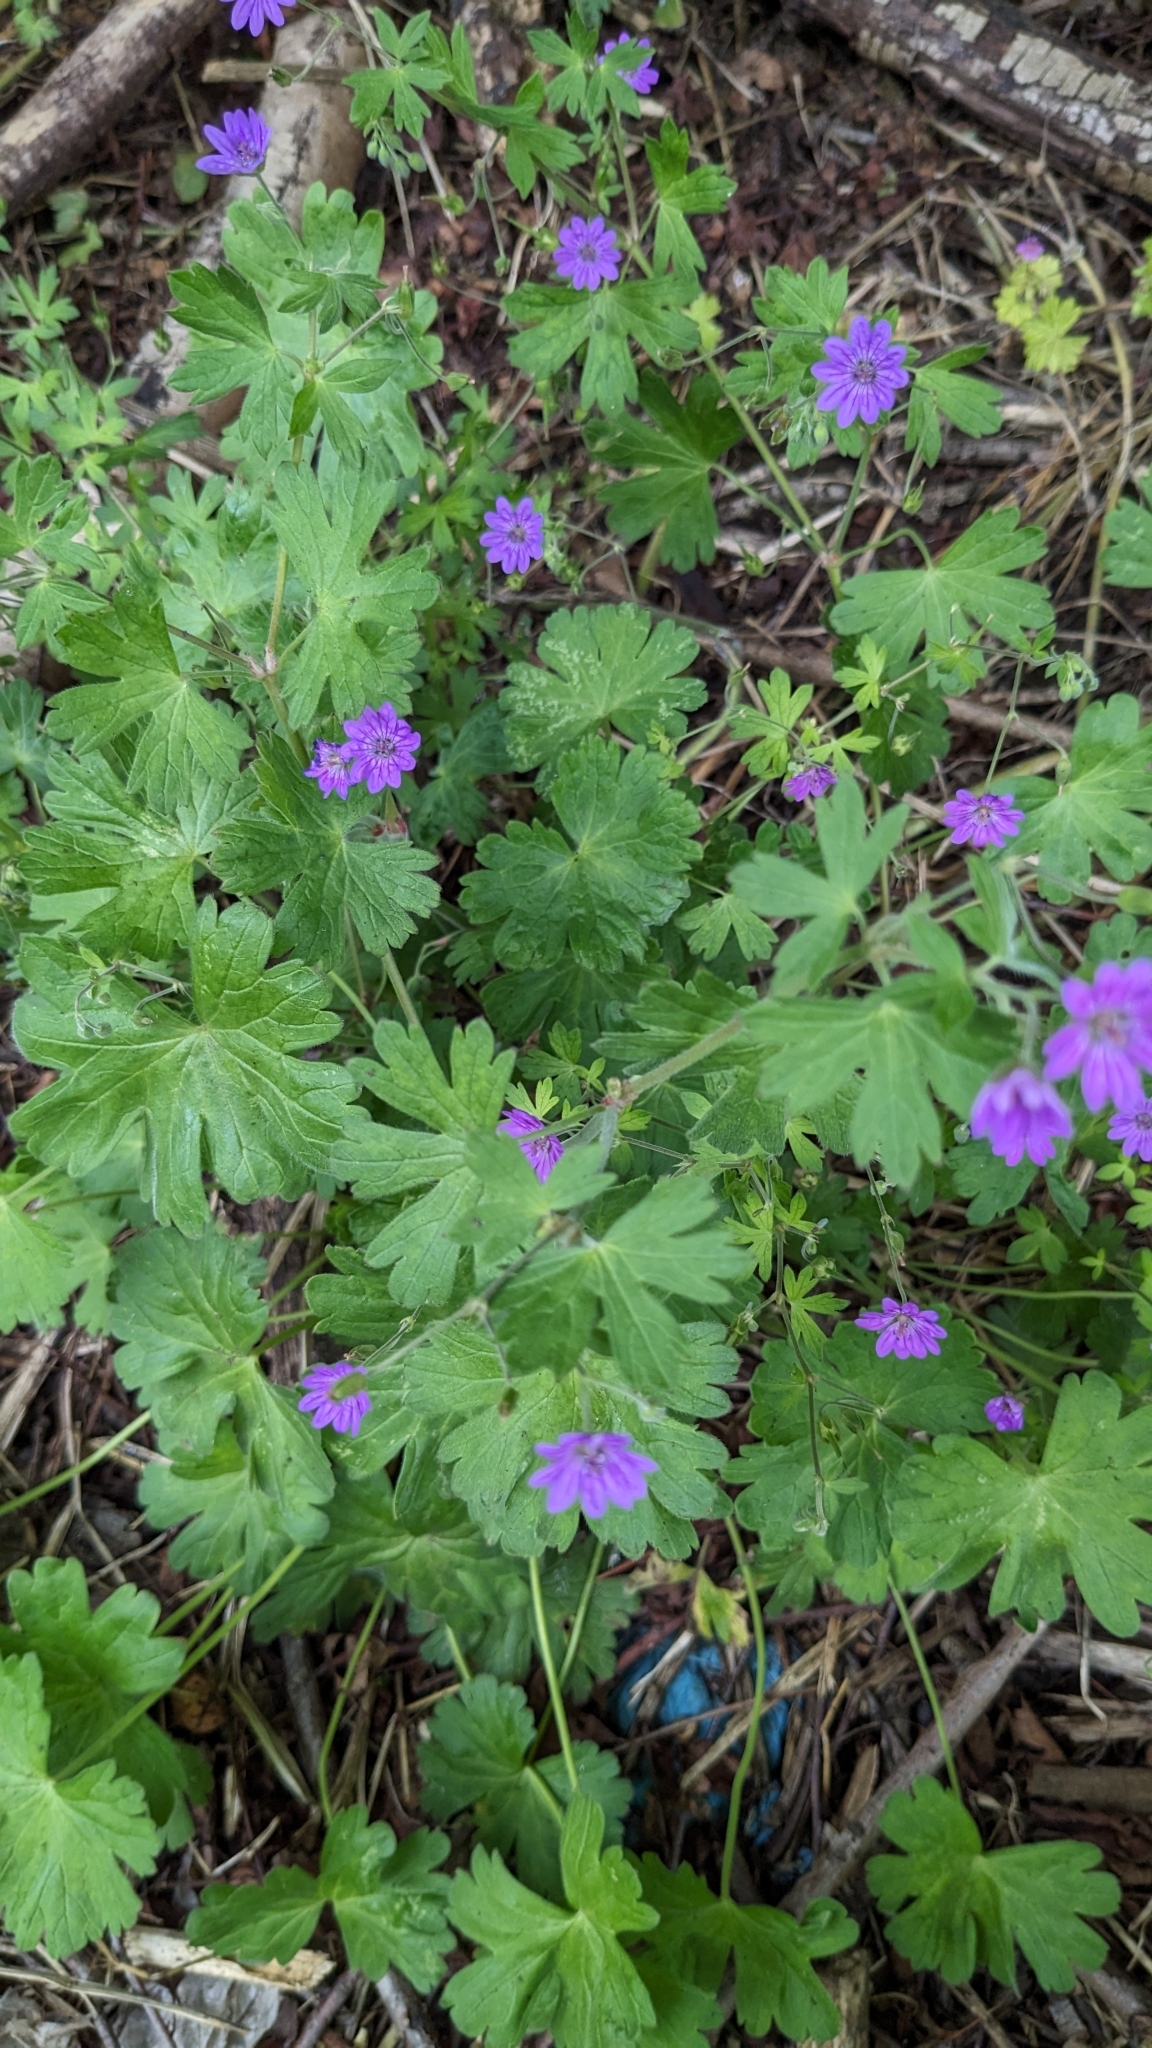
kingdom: Plantae
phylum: Tracheophyta
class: Magnoliopsida
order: Geraniales
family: Geraniaceae
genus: Geranium
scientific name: Geranium pyrenaicum
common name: Hedgerow crane's-bill
